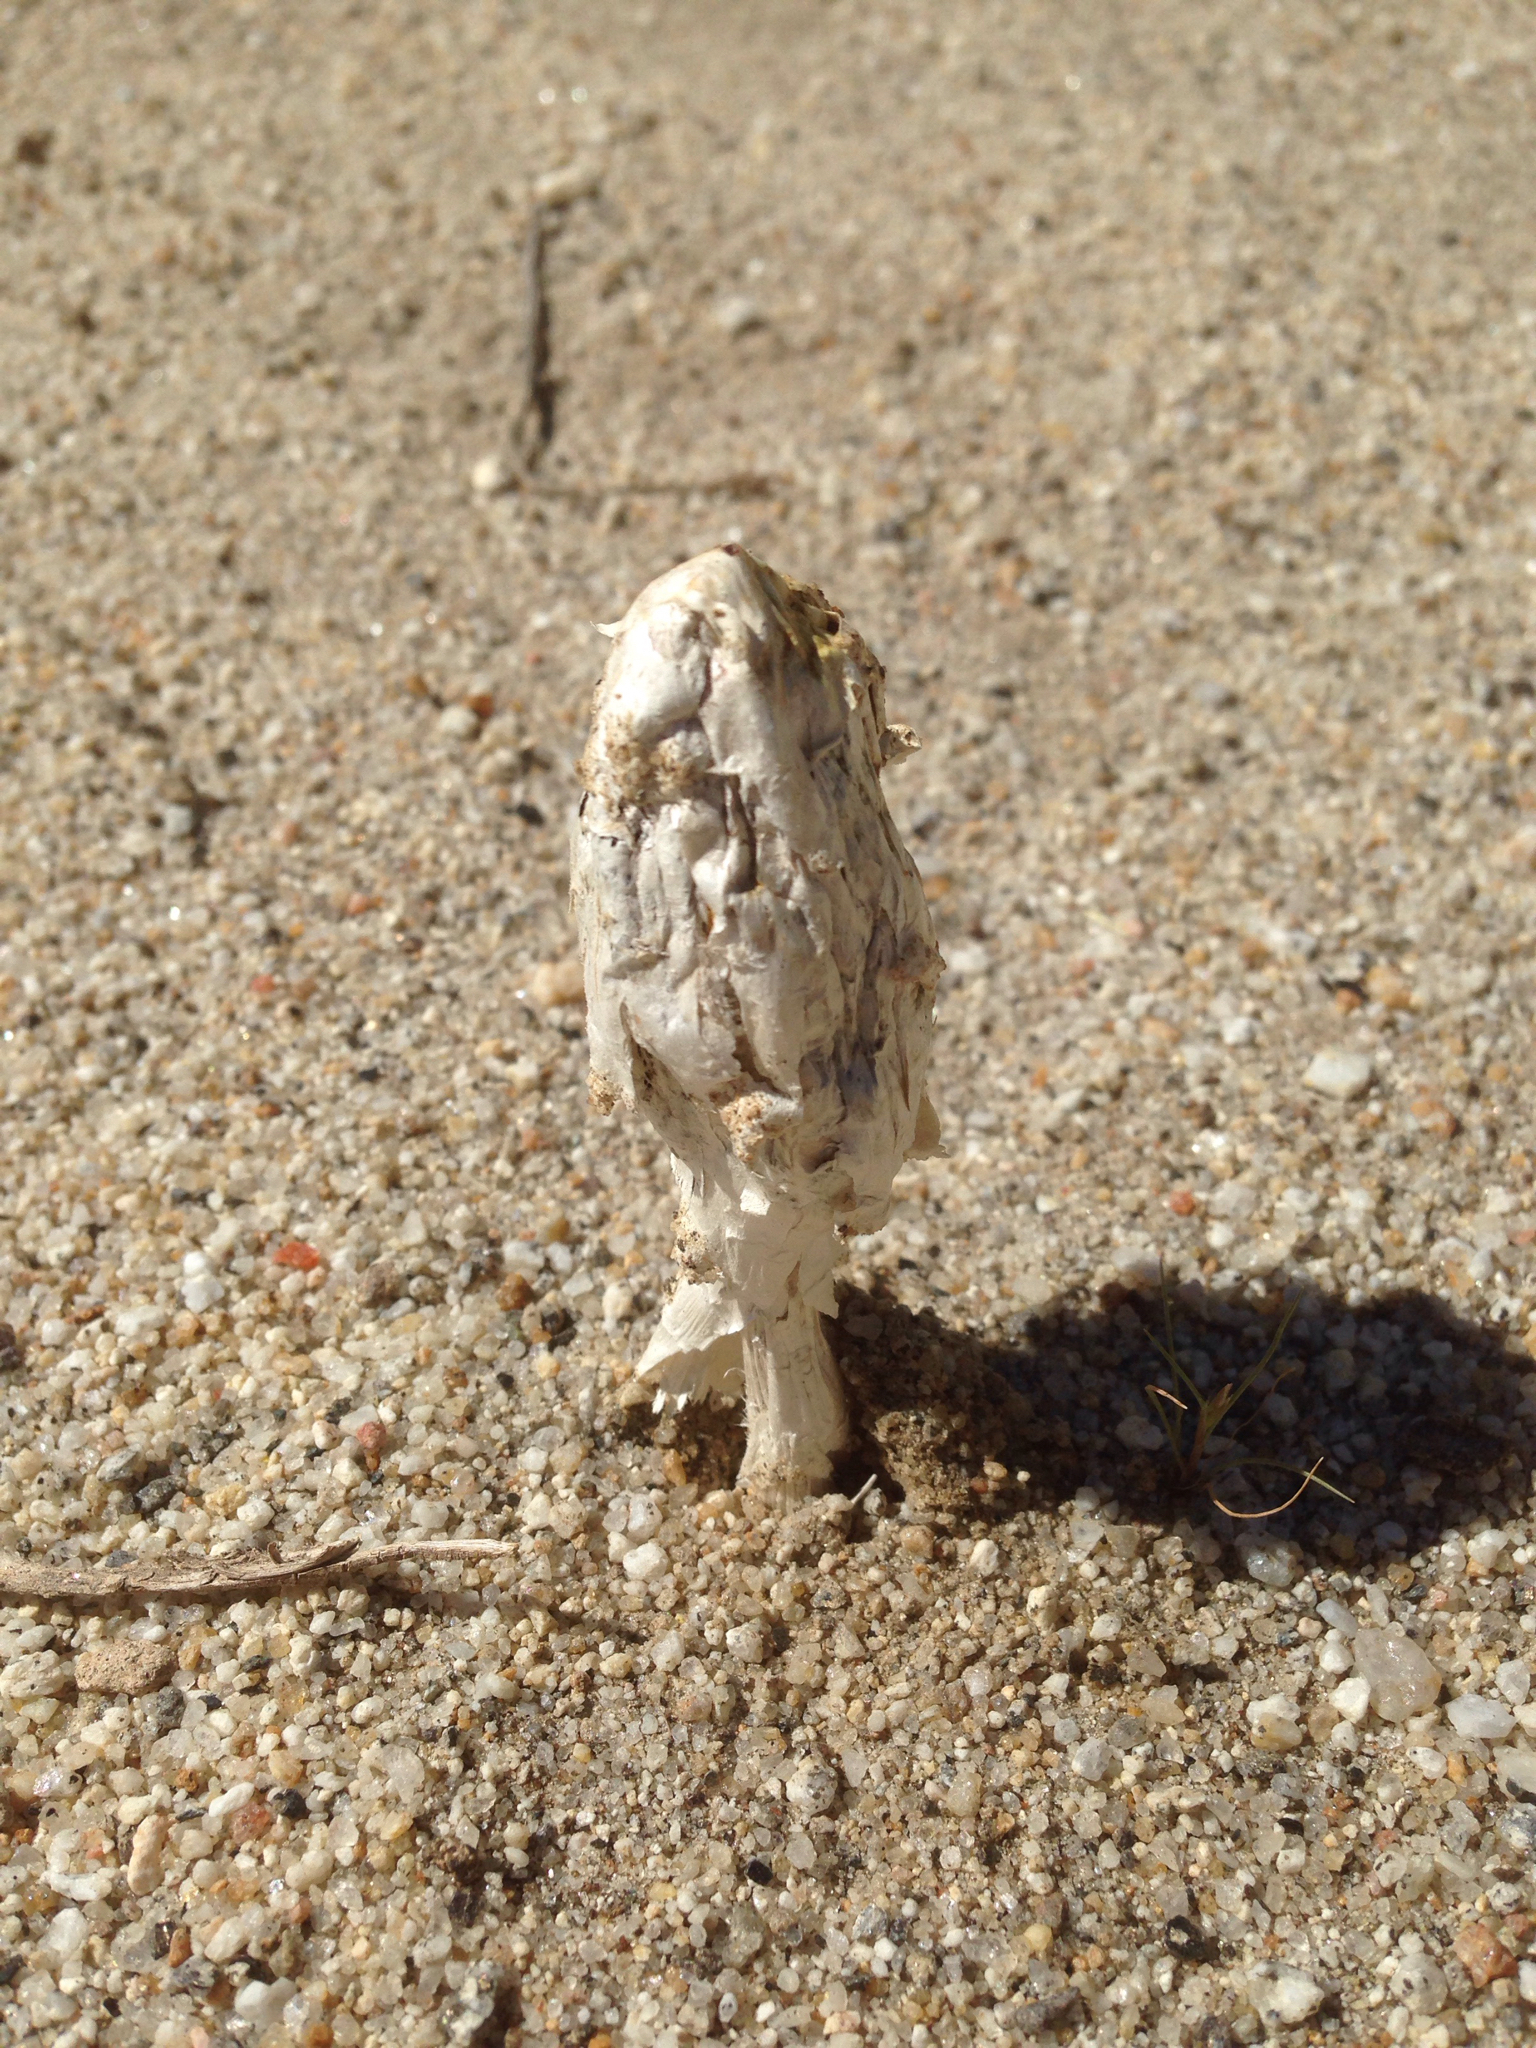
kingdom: Fungi
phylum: Basidiomycota
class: Agaricomycetes
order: Agaricales
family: Agaricaceae
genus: Podaxis
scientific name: Podaxis pistillaris
